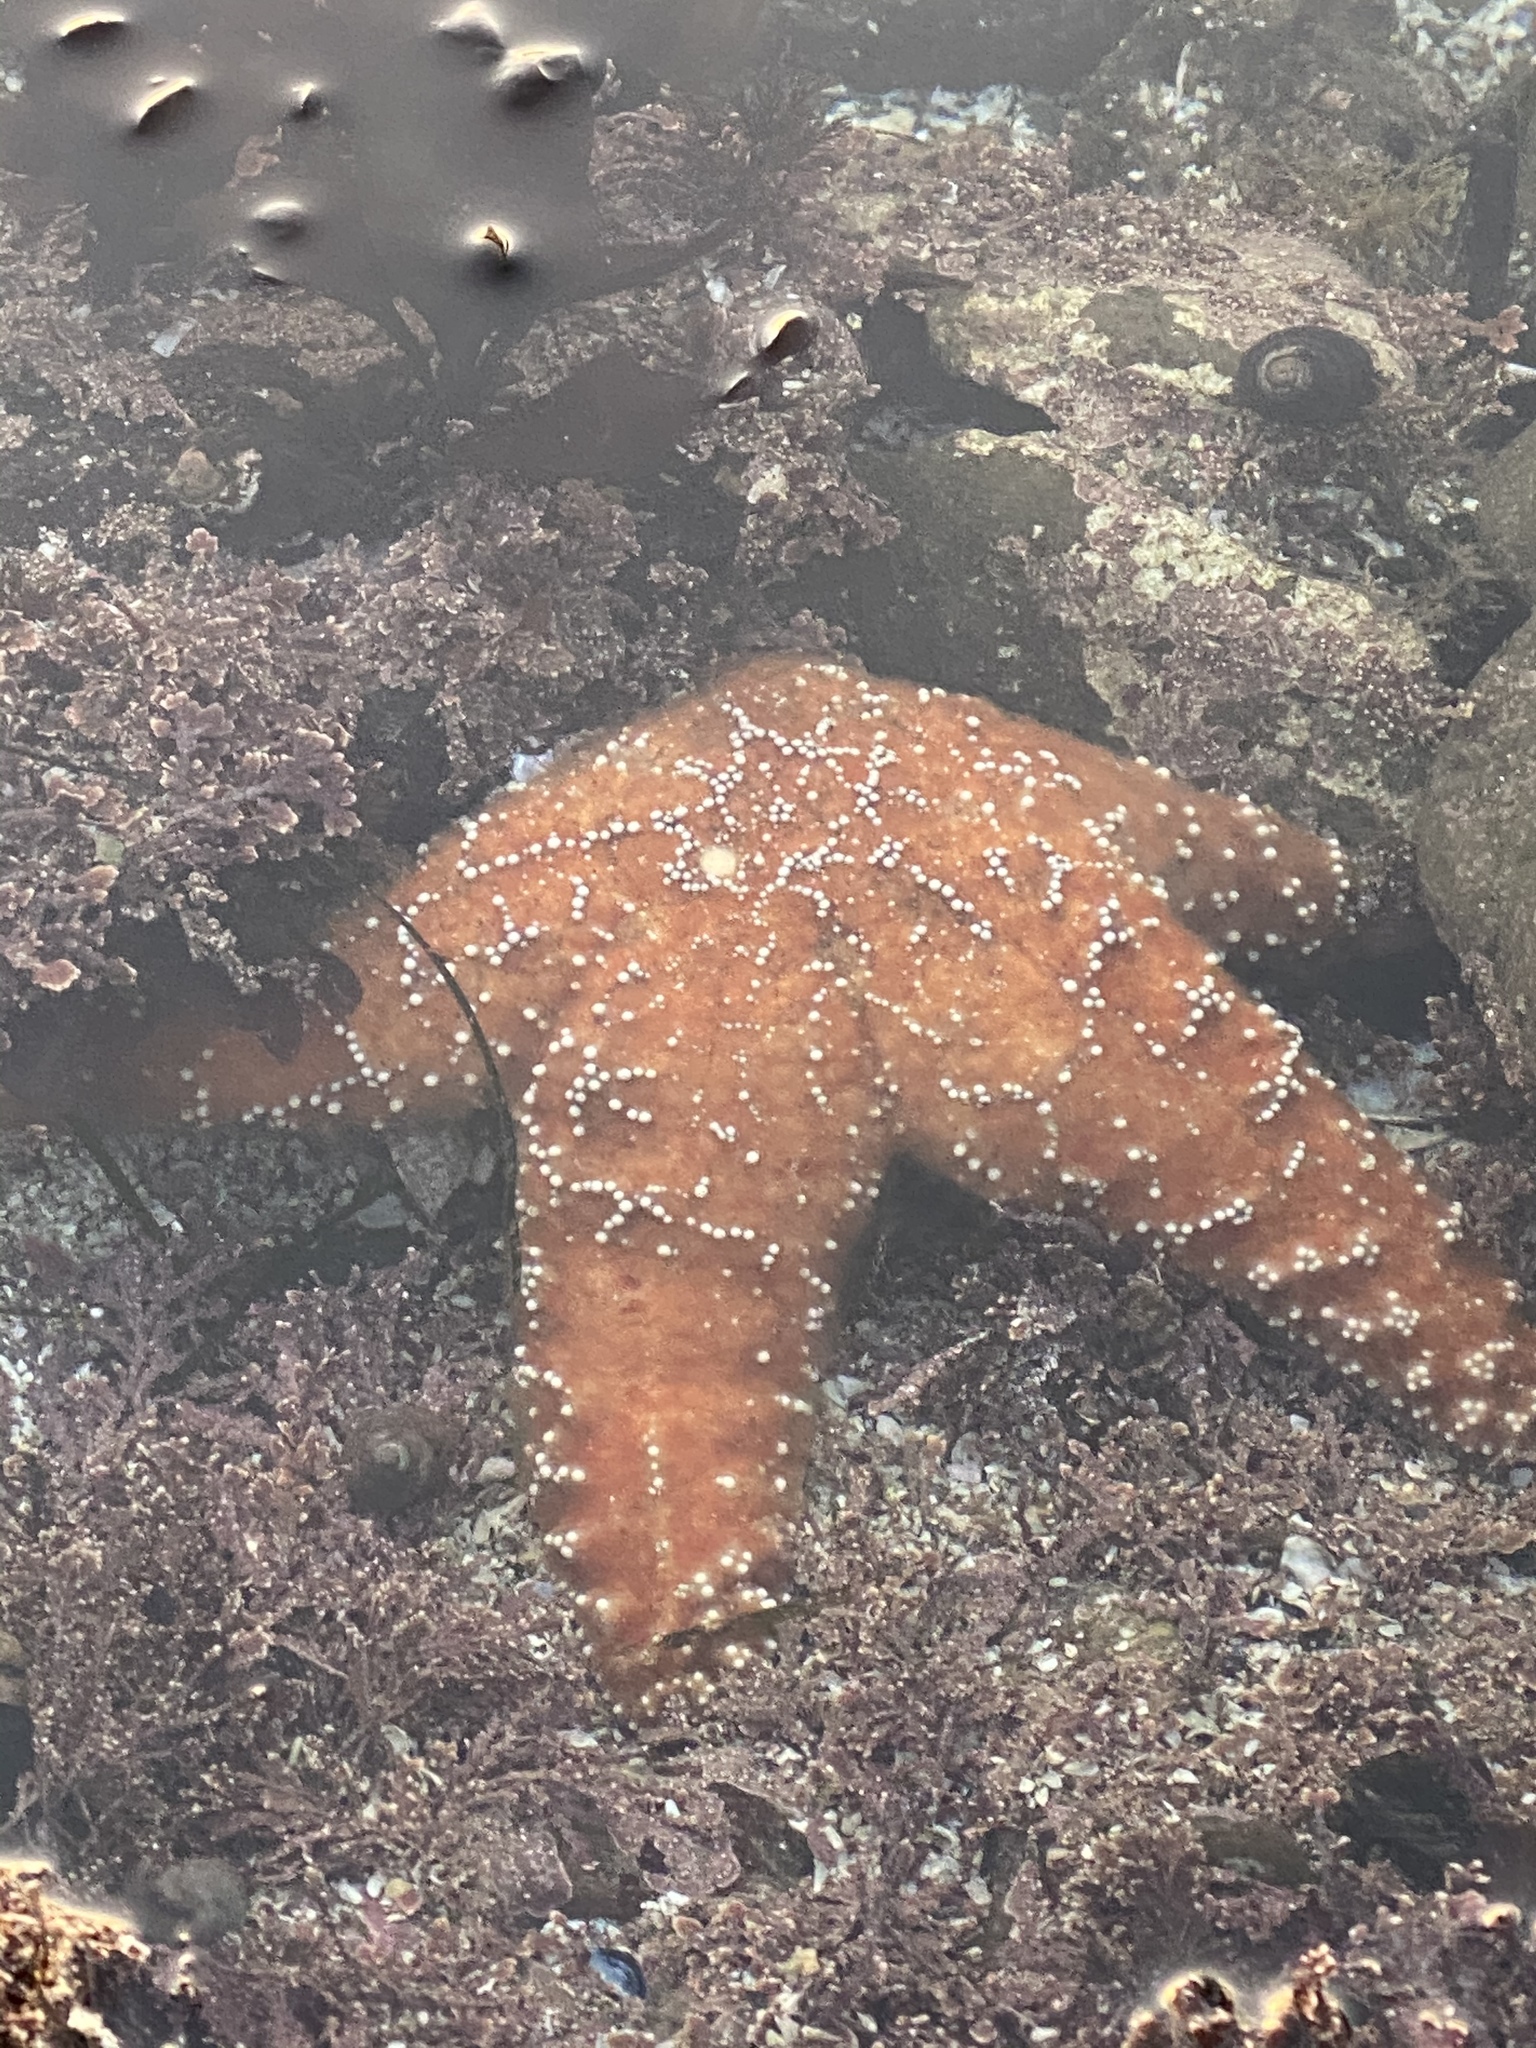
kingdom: Animalia
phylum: Echinodermata
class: Asteroidea
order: Forcipulatida
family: Asteriidae
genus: Pisaster
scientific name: Pisaster ochraceus
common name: Ochre stars
